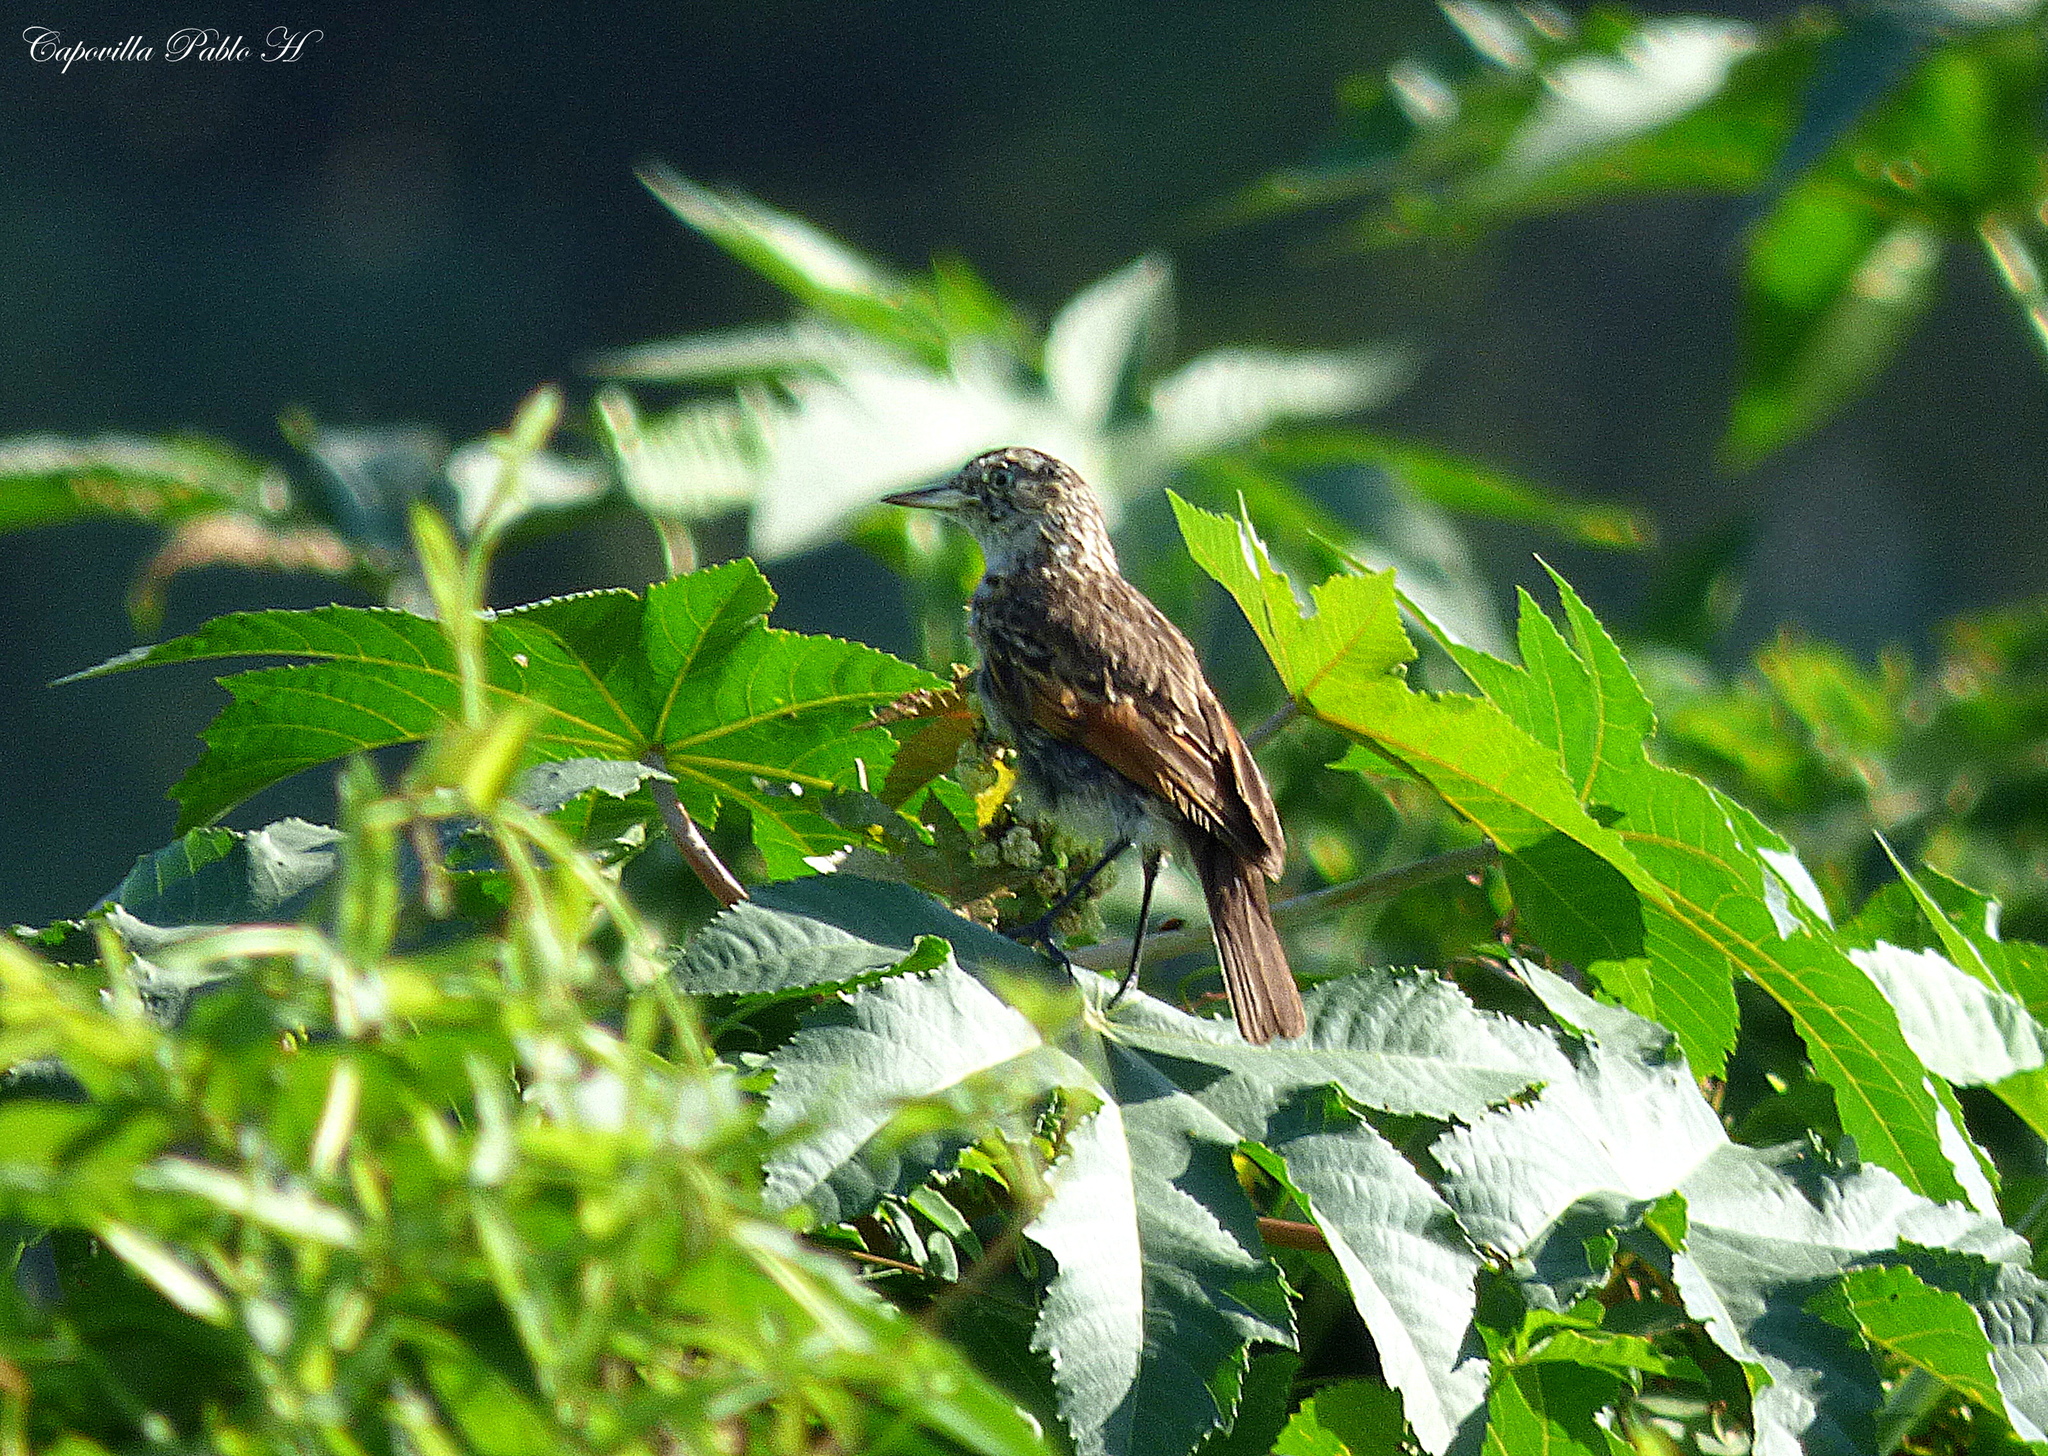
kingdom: Animalia
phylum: Chordata
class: Aves
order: Passeriformes
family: Tyrannidae
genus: Hymenops
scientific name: Hymenops perspicillatus
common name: Spectacled tyrant
